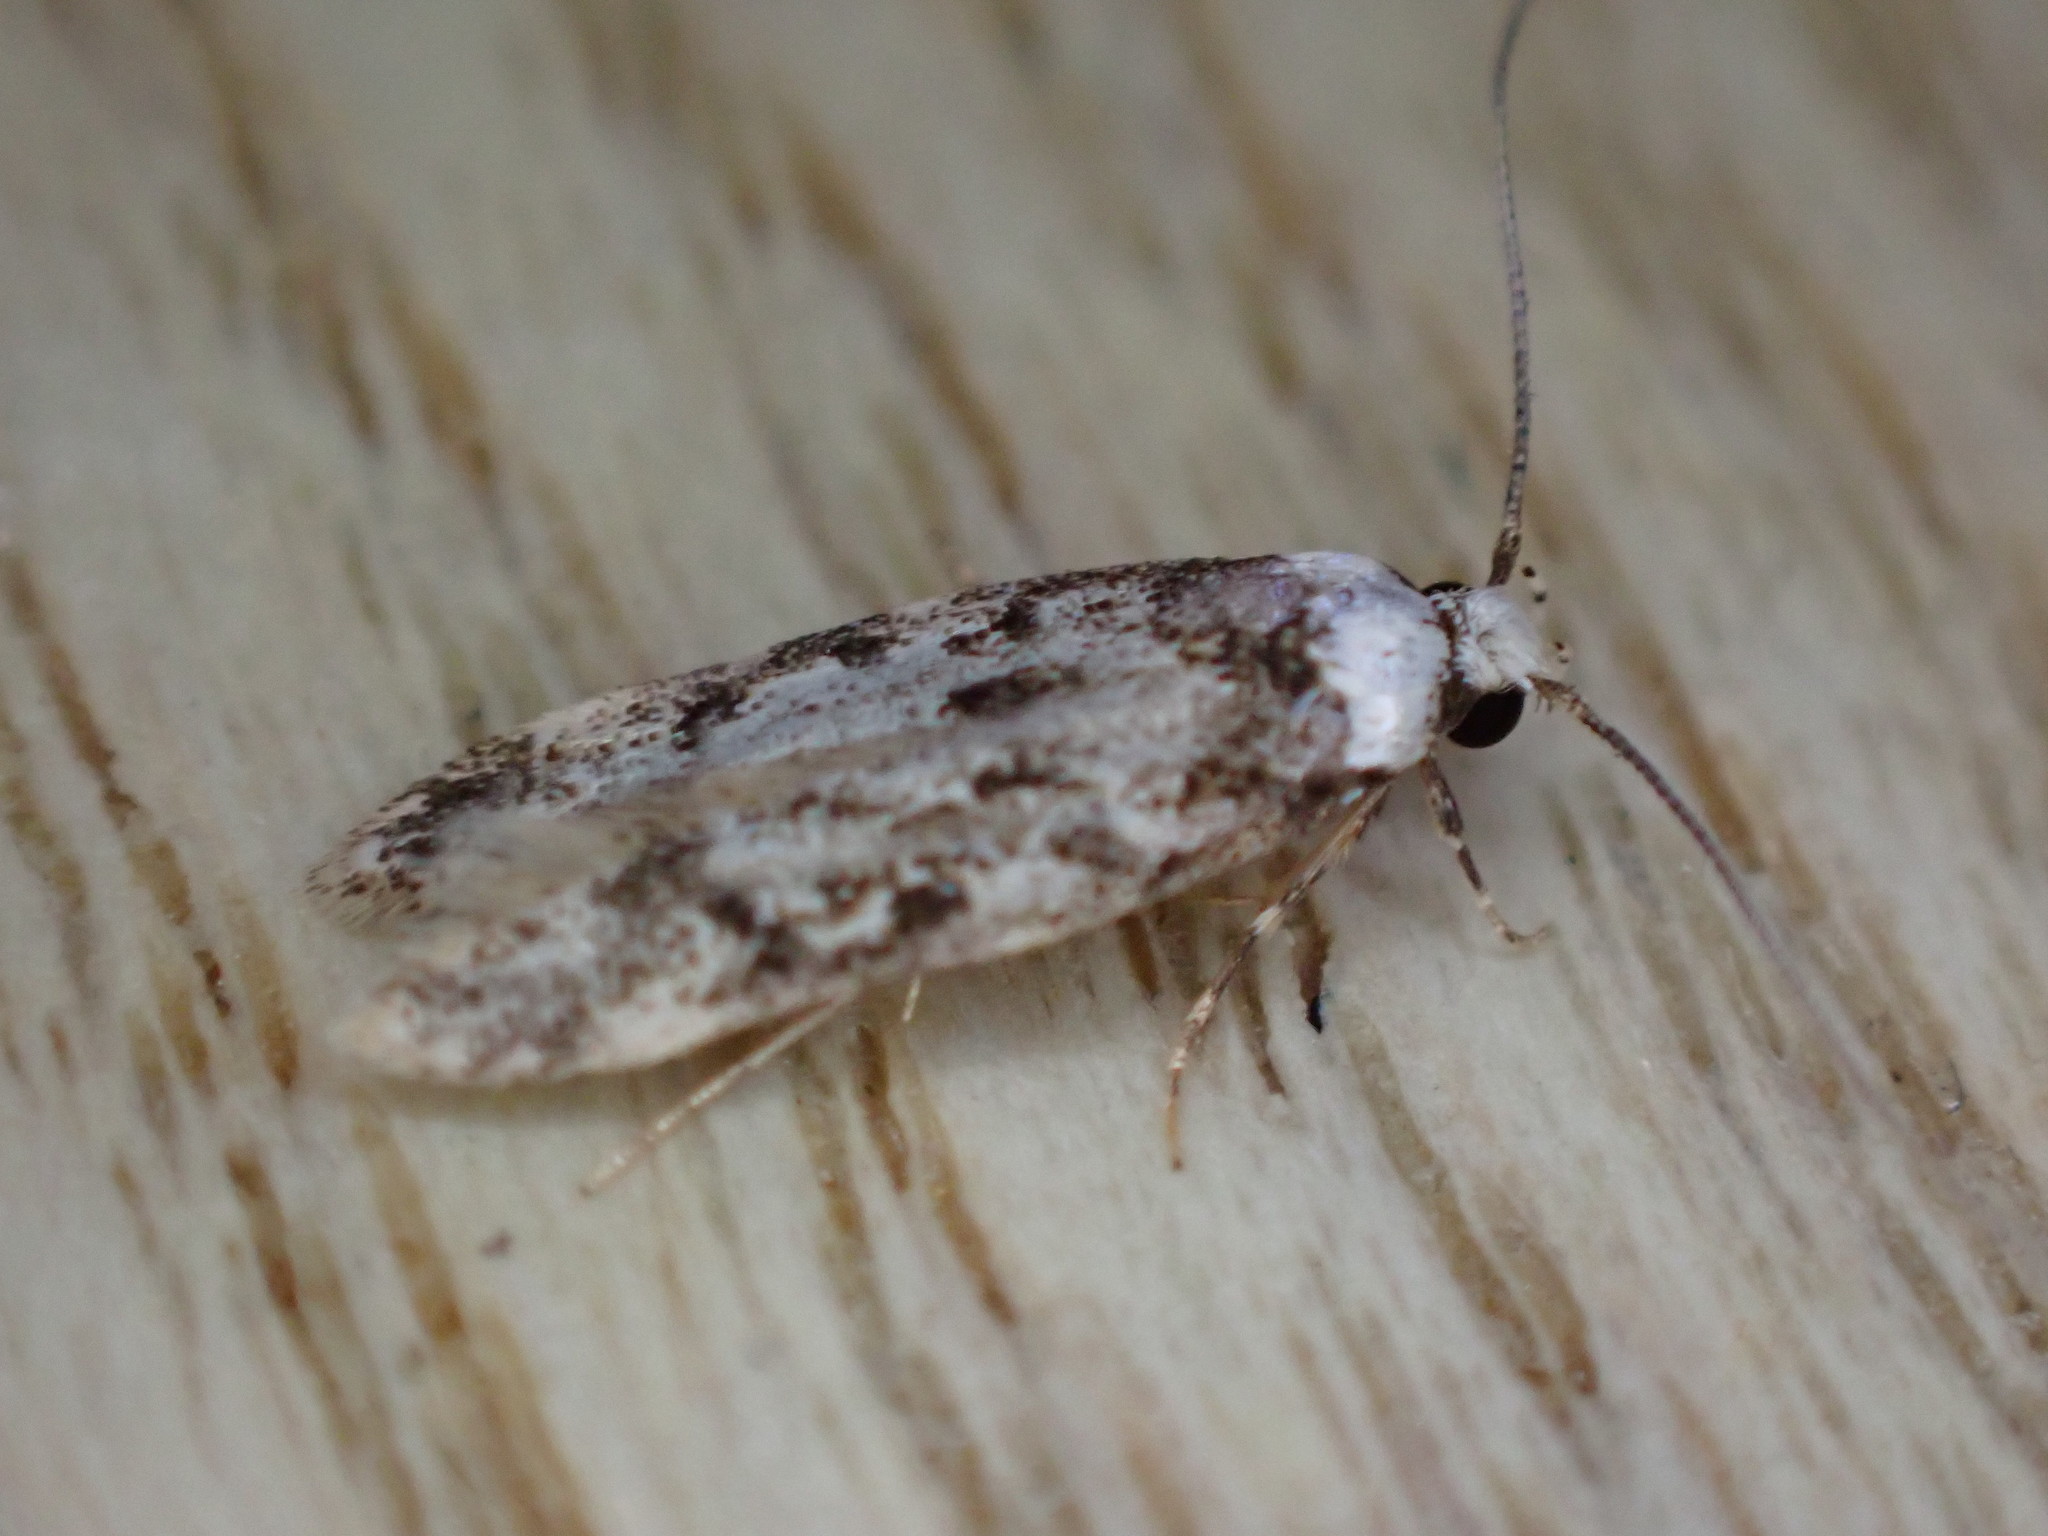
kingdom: Animalia
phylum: Arthropoda
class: Insecta
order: Lepidoptera
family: Oecophoridae
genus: Endrosis
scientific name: Endrosis sarcitrella
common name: White-shouldered house moth
